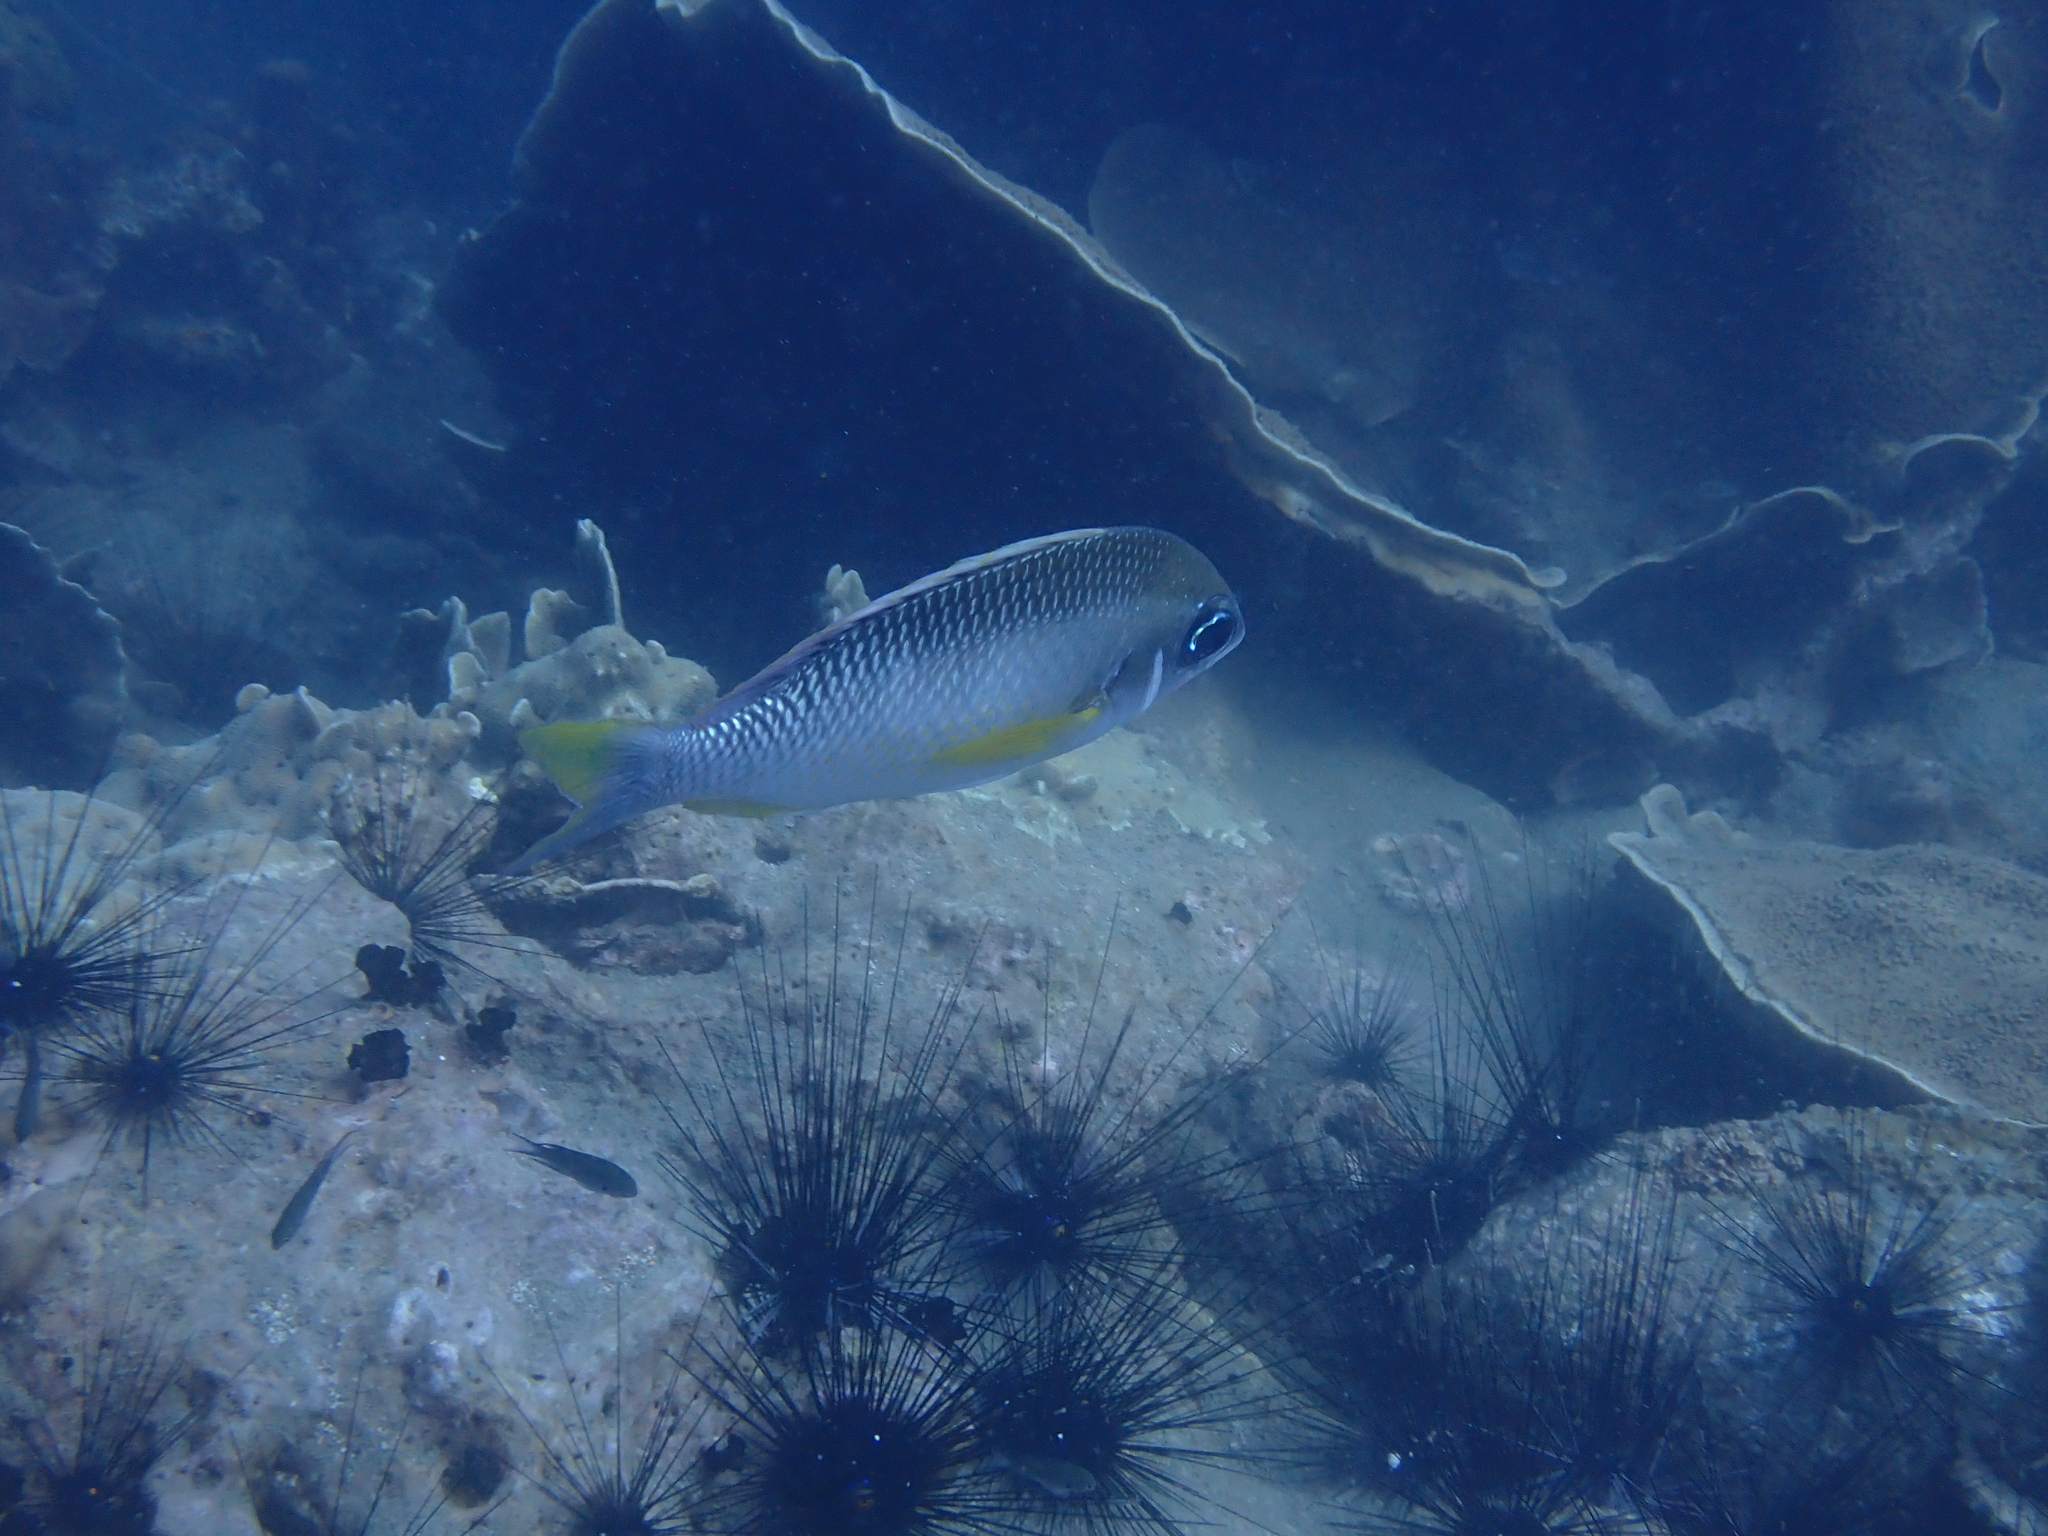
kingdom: Animalia
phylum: Chordata
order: Perciformes
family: Nemipteridae
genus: Scolopsis
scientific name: Scolopsis margaritifera
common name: Pearly monocle bream
